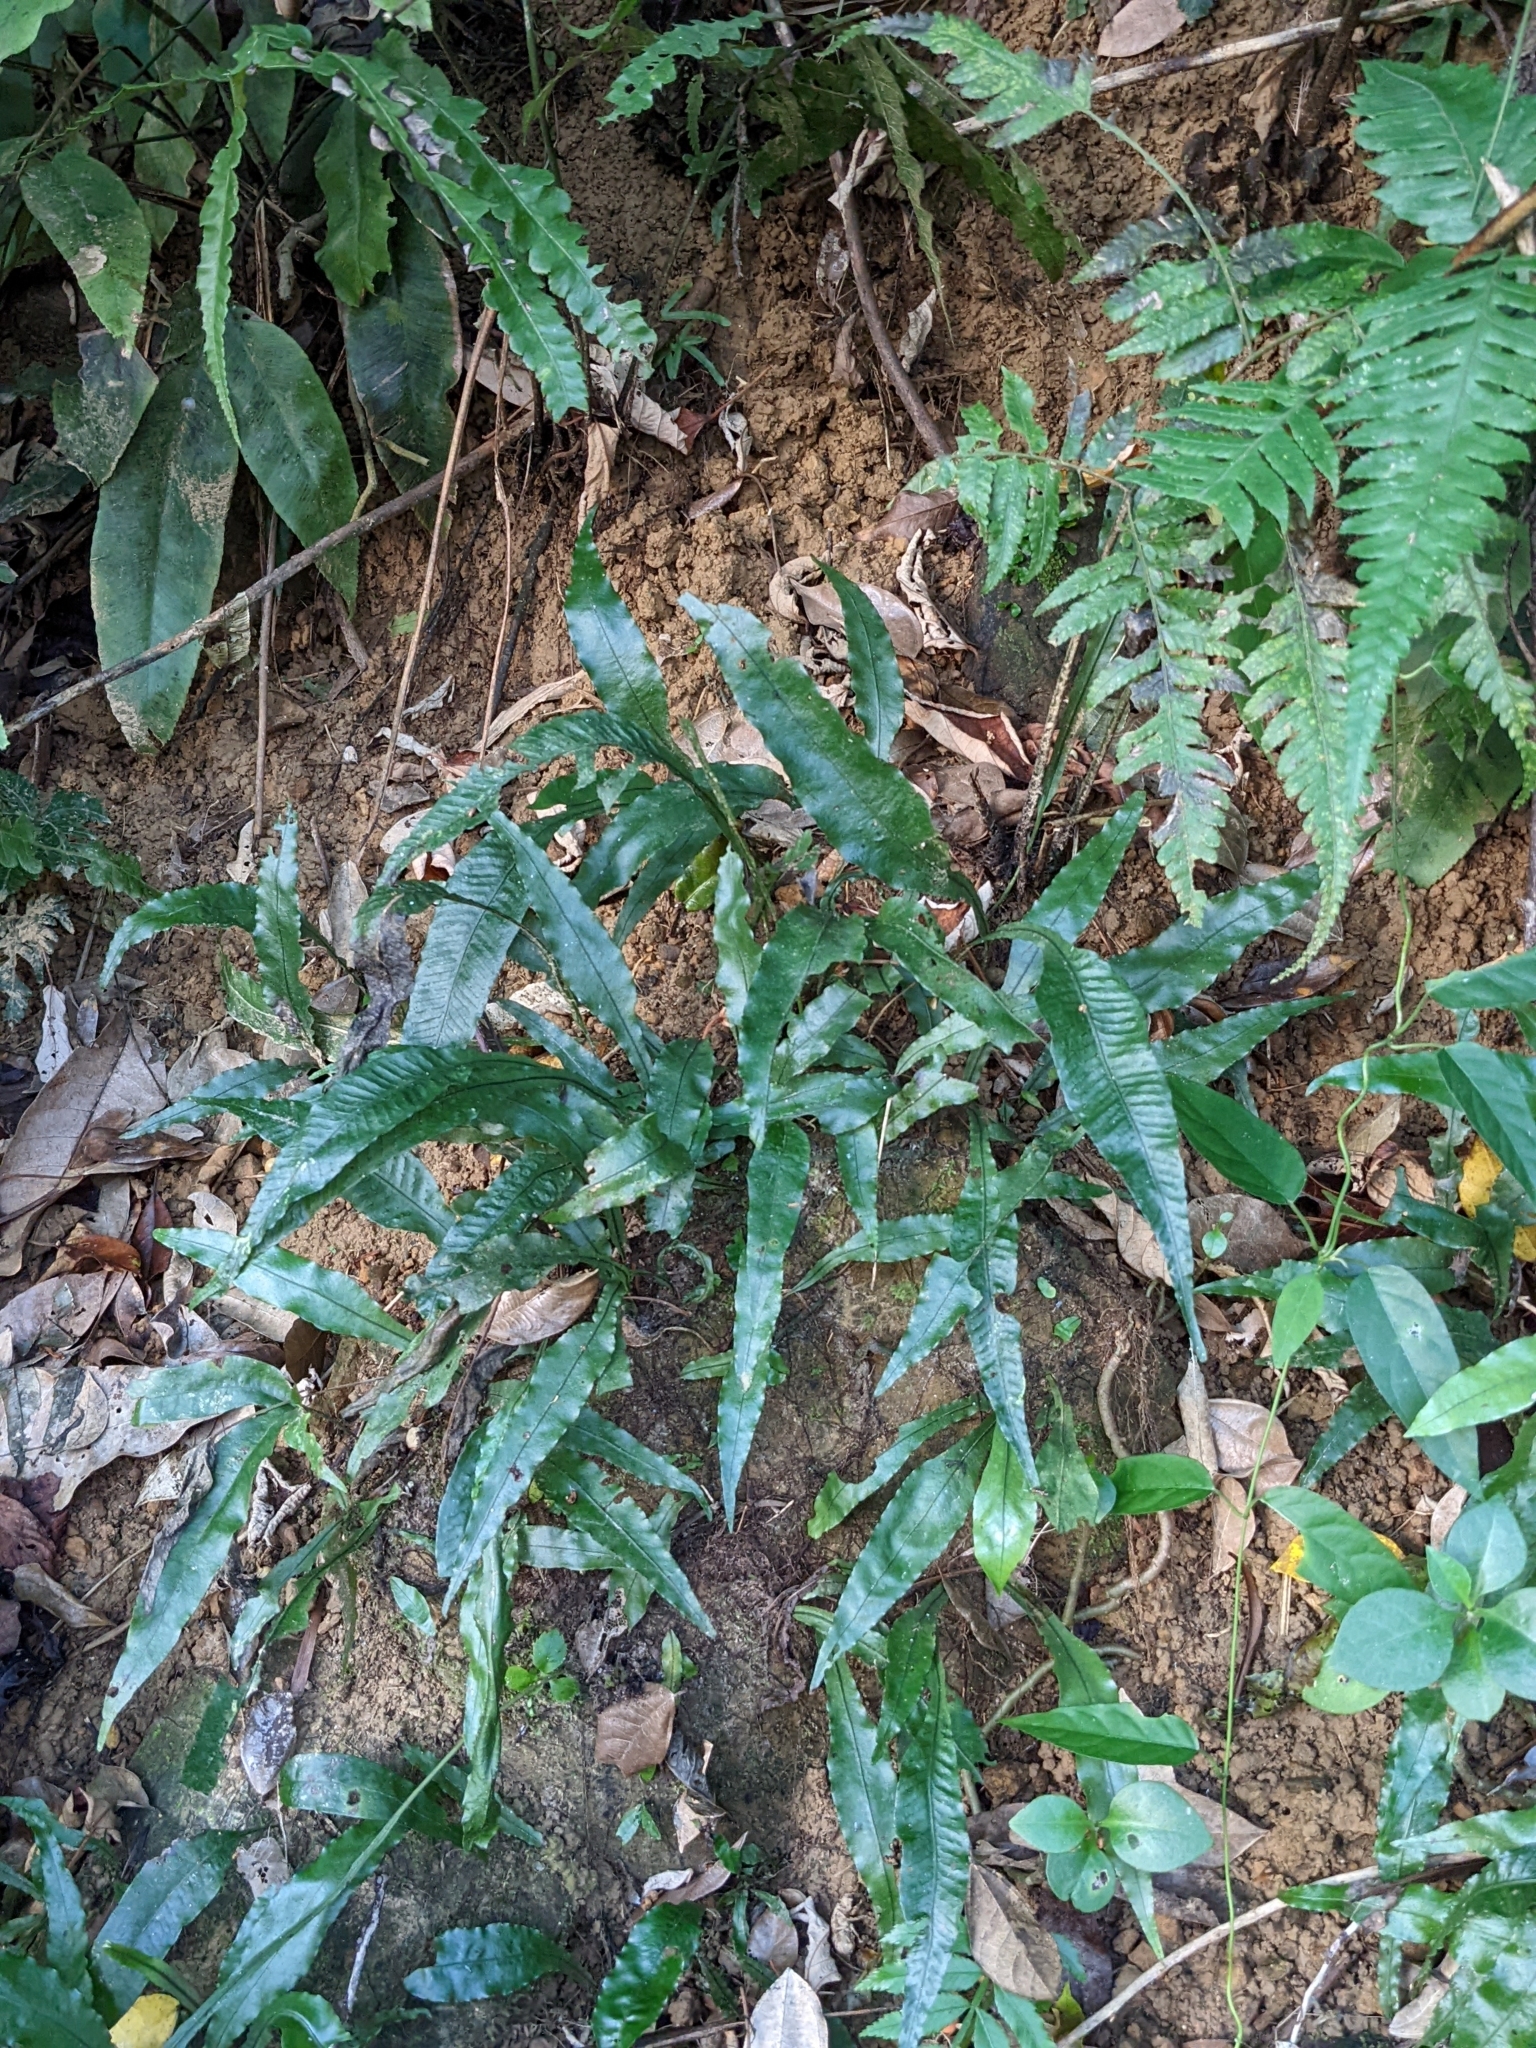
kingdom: Plantae
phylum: Tracheophyta
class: Polypodiopsida
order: Polypodiales
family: Polypodiaceae
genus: Leptochilus
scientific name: Leptochilus wrightii
